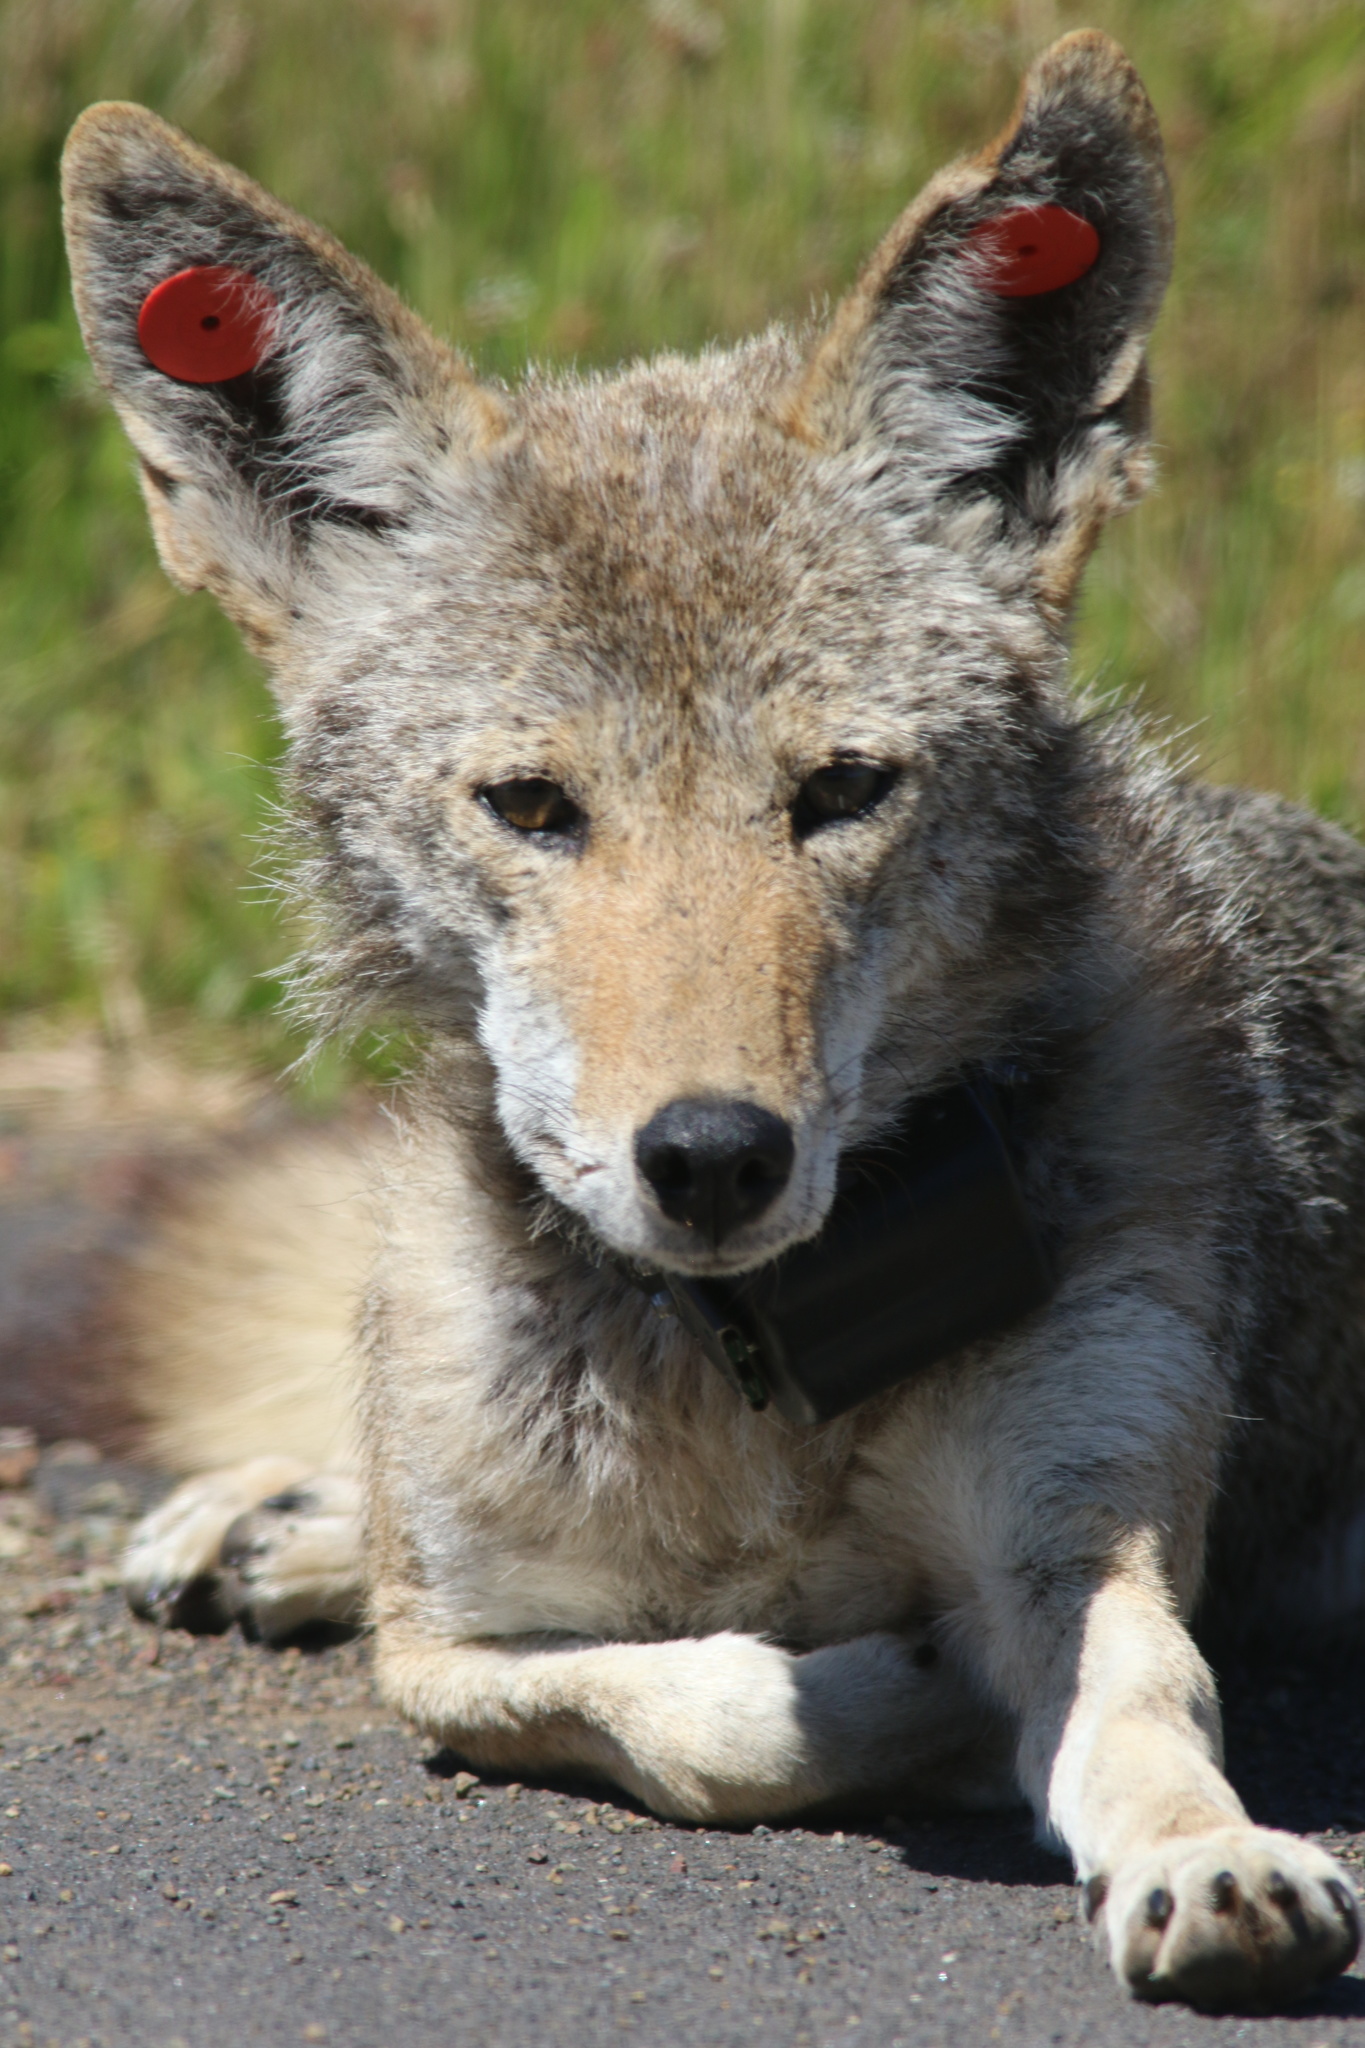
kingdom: Animalia
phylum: Chordata
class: Mammalia
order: Carnivora
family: Canidae
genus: Canis
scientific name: Canis latrans
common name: Coyote
